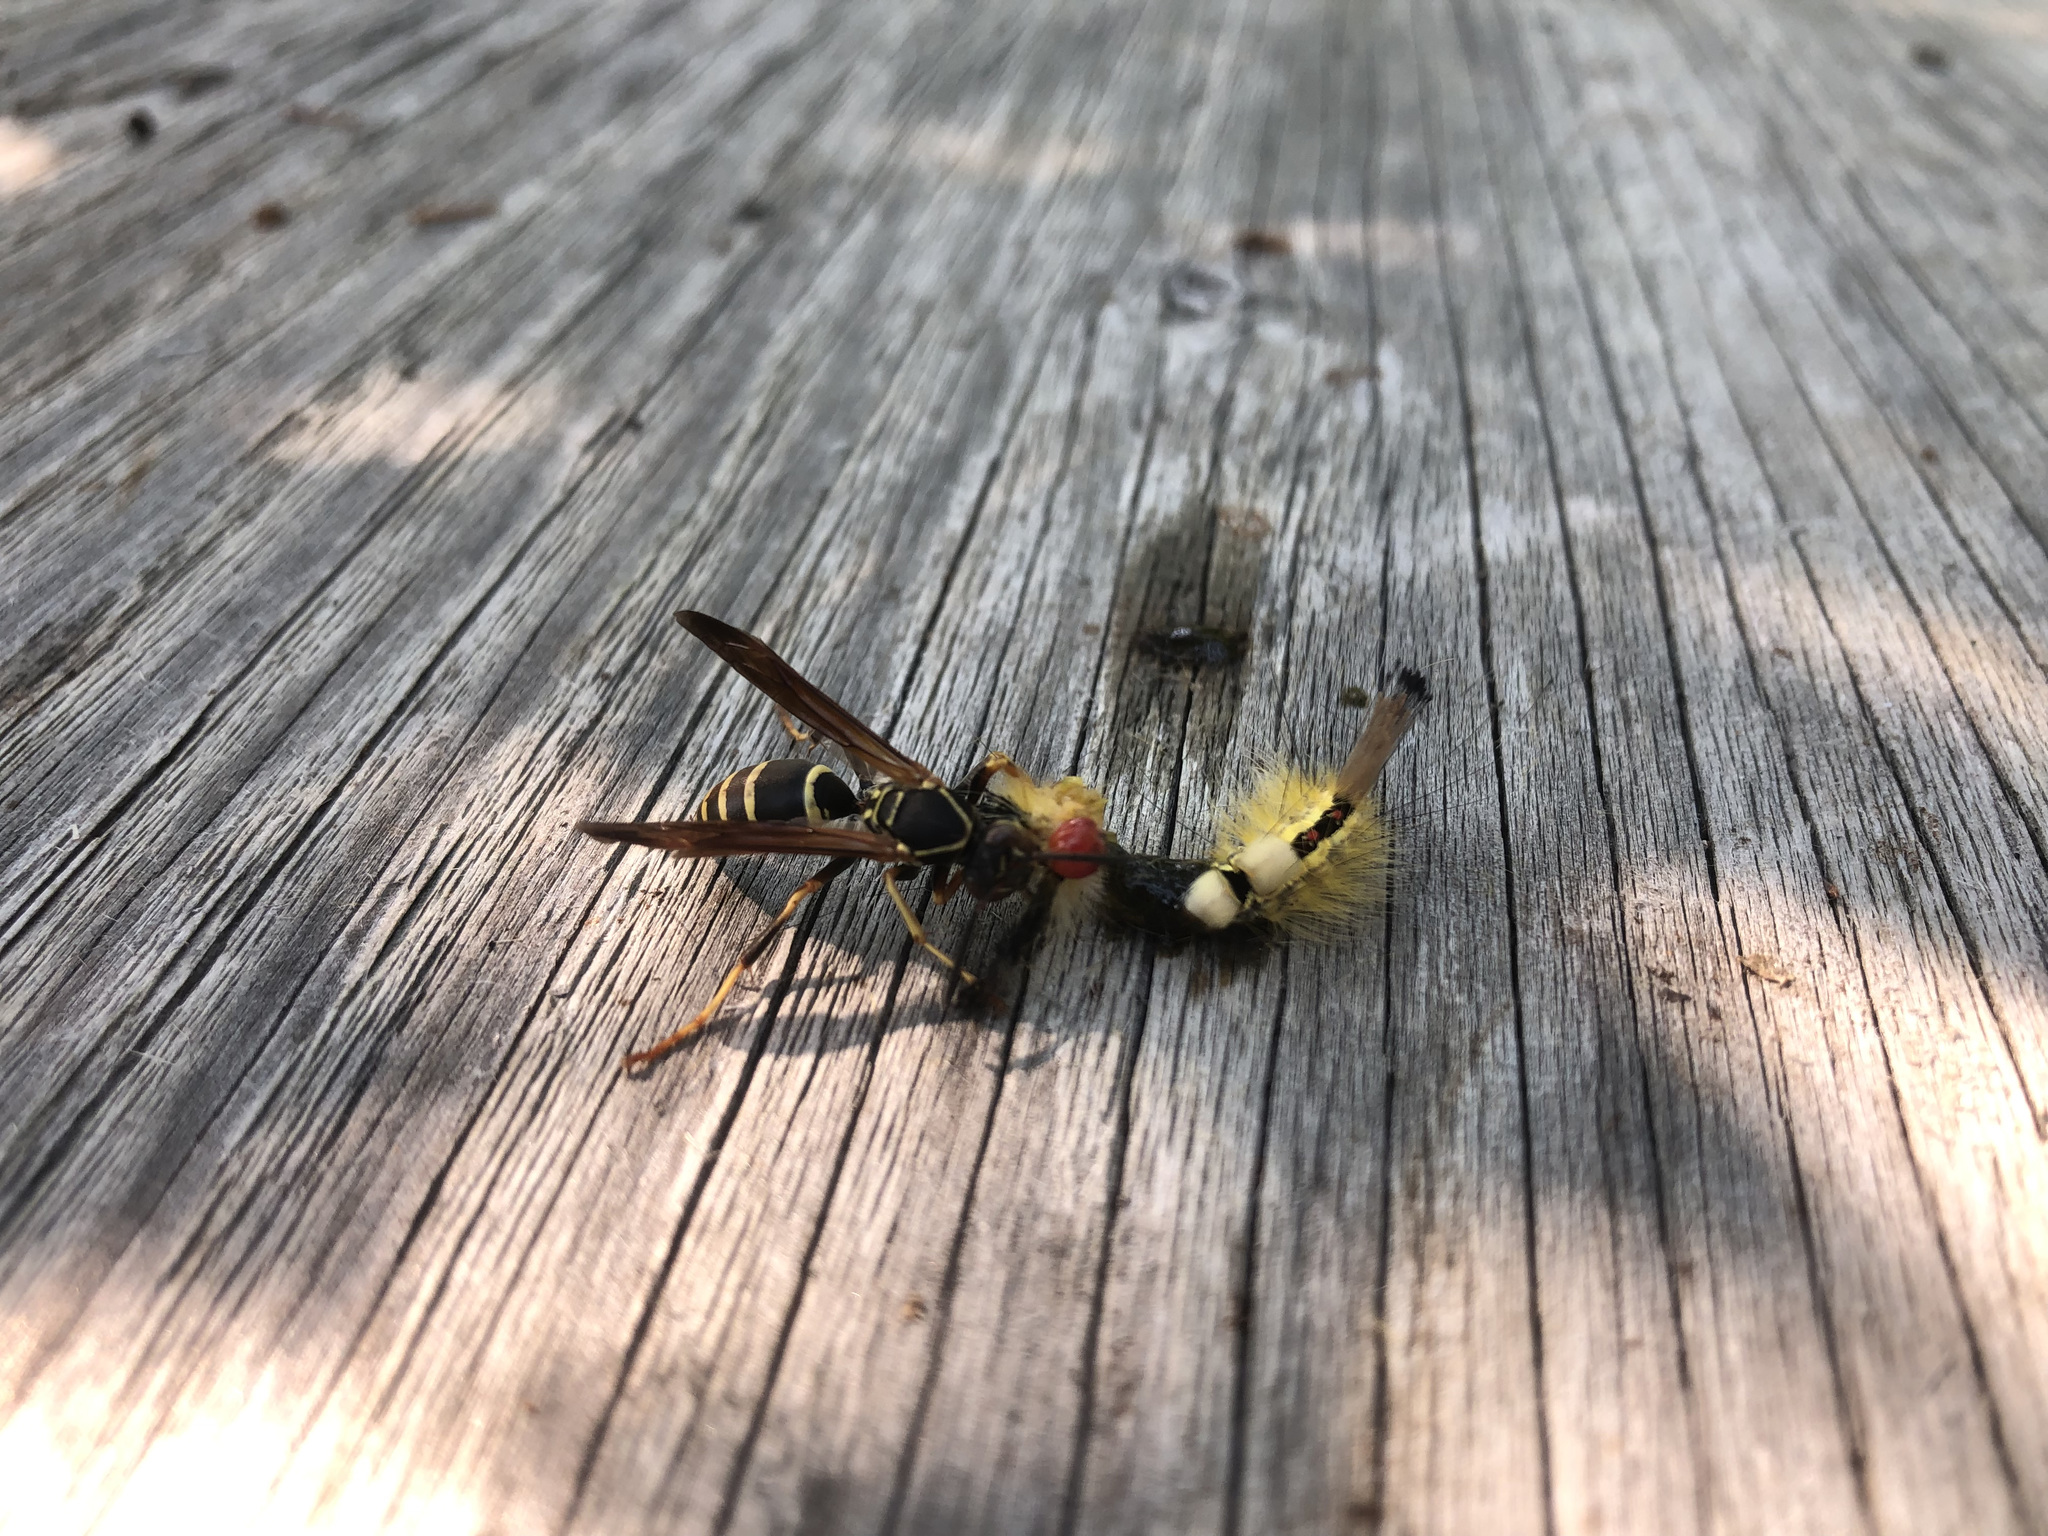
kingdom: Animalia
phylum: Arthropoda
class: Insecta
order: Hymenoptera
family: Eumenidae
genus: Polistes
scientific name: Polistes fuscatus
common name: Dark paper wasp
